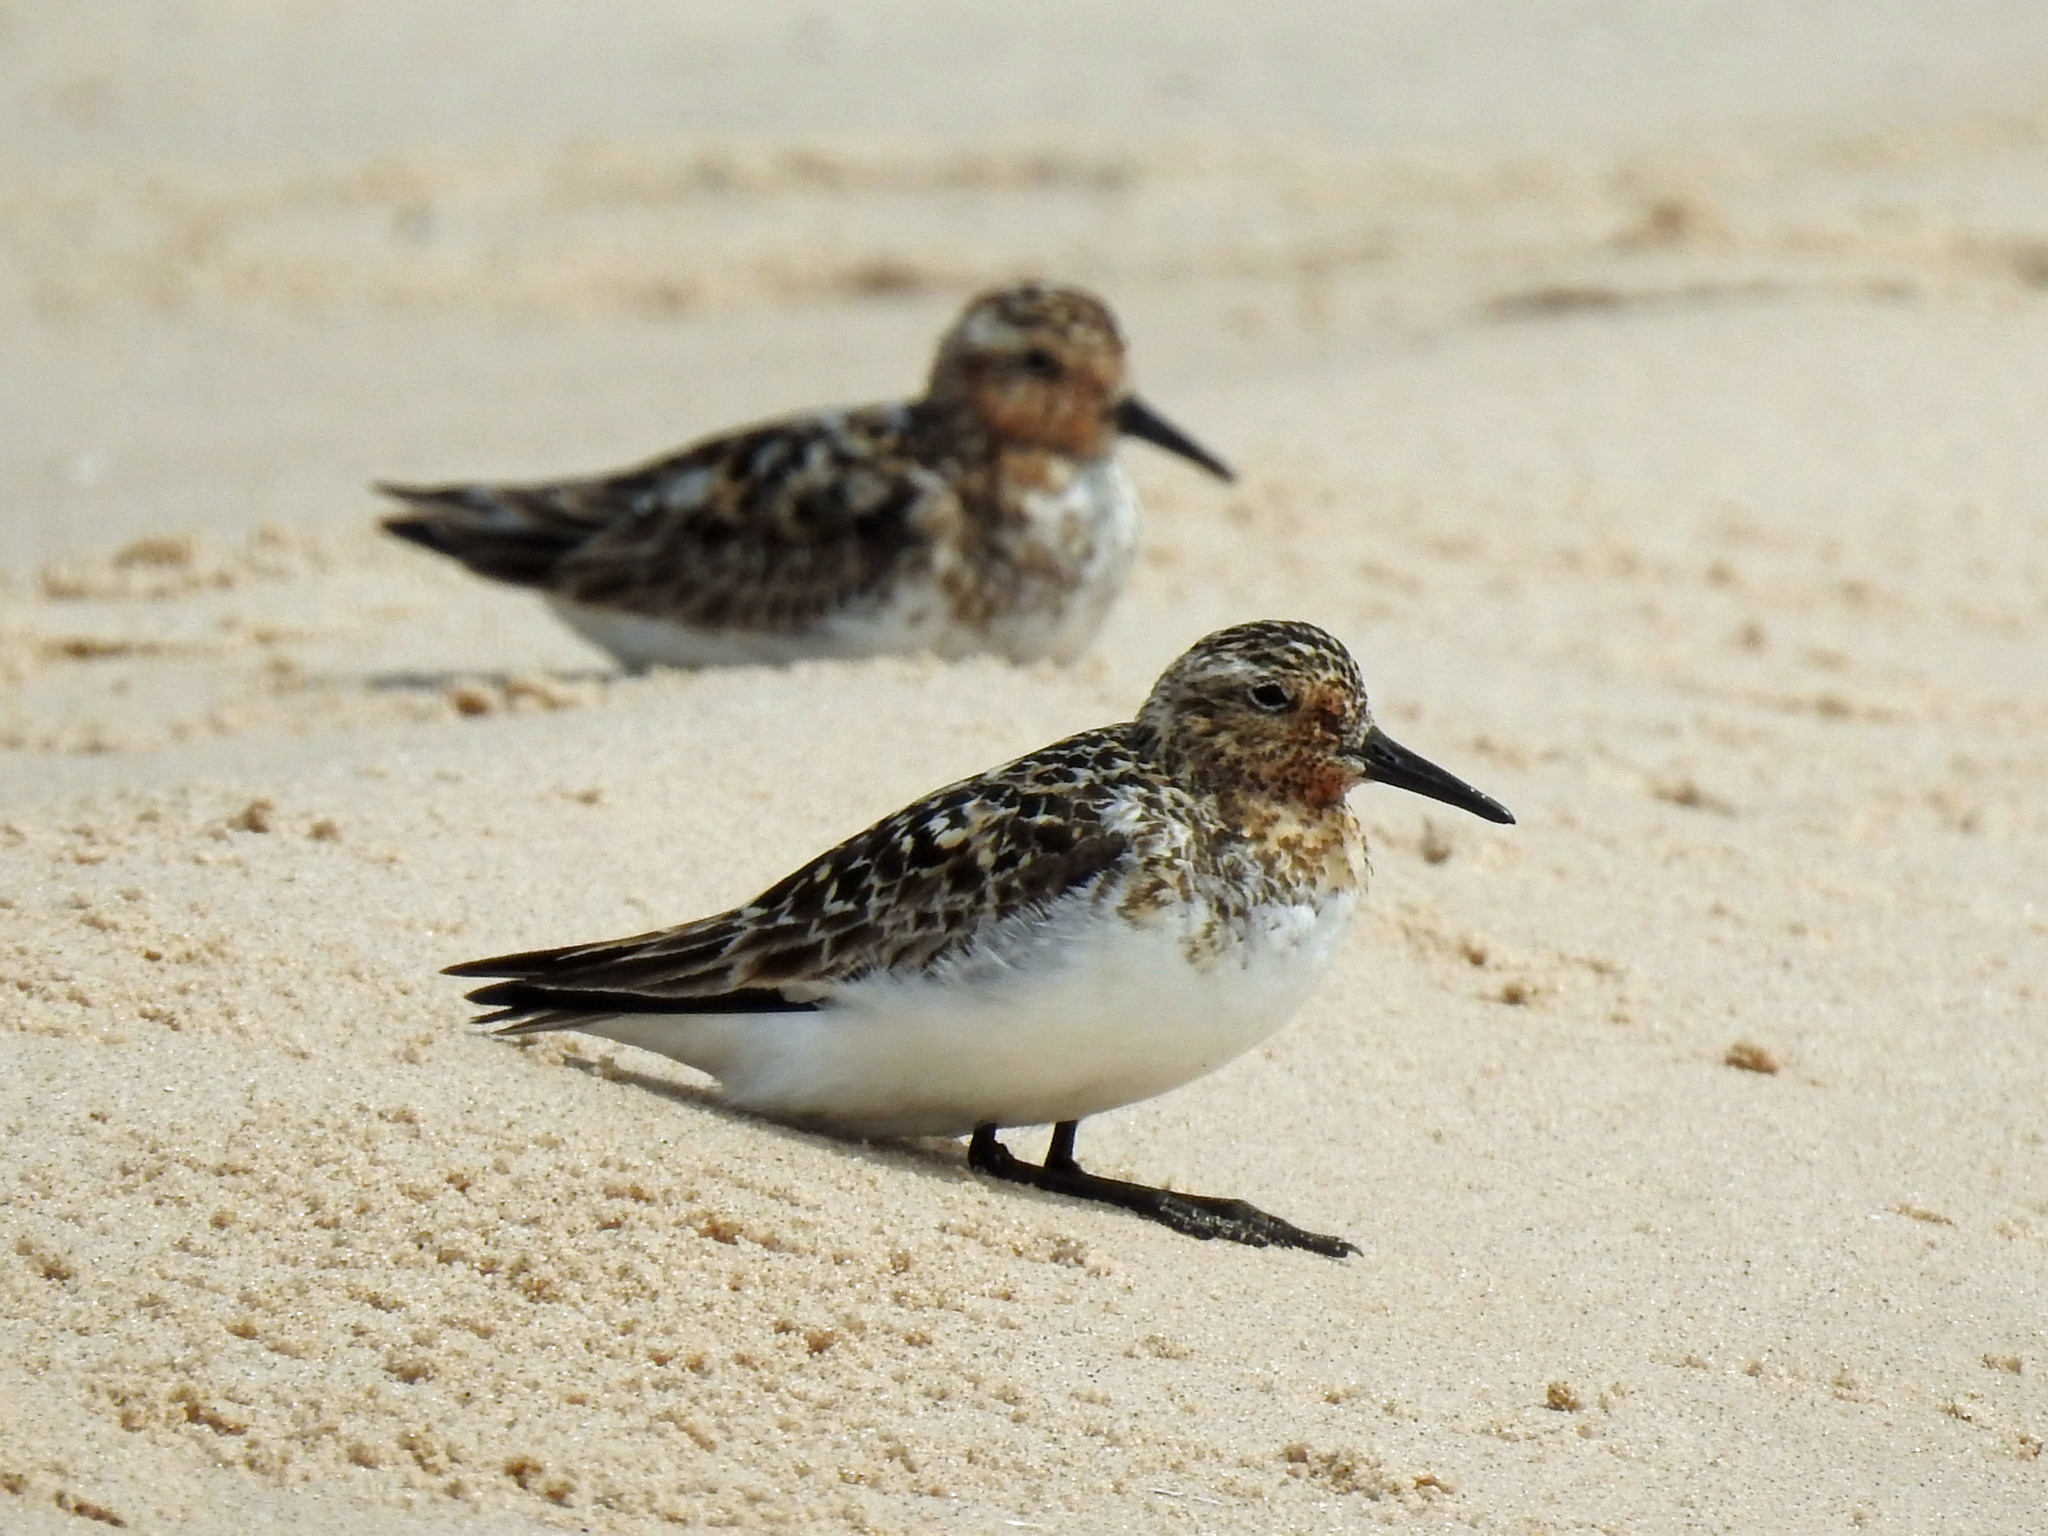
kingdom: Animalia
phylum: Chordata
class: Aves
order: Charadriiformes
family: Scolopacidae
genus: Calidris
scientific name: Calidris alba
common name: Sanderling
